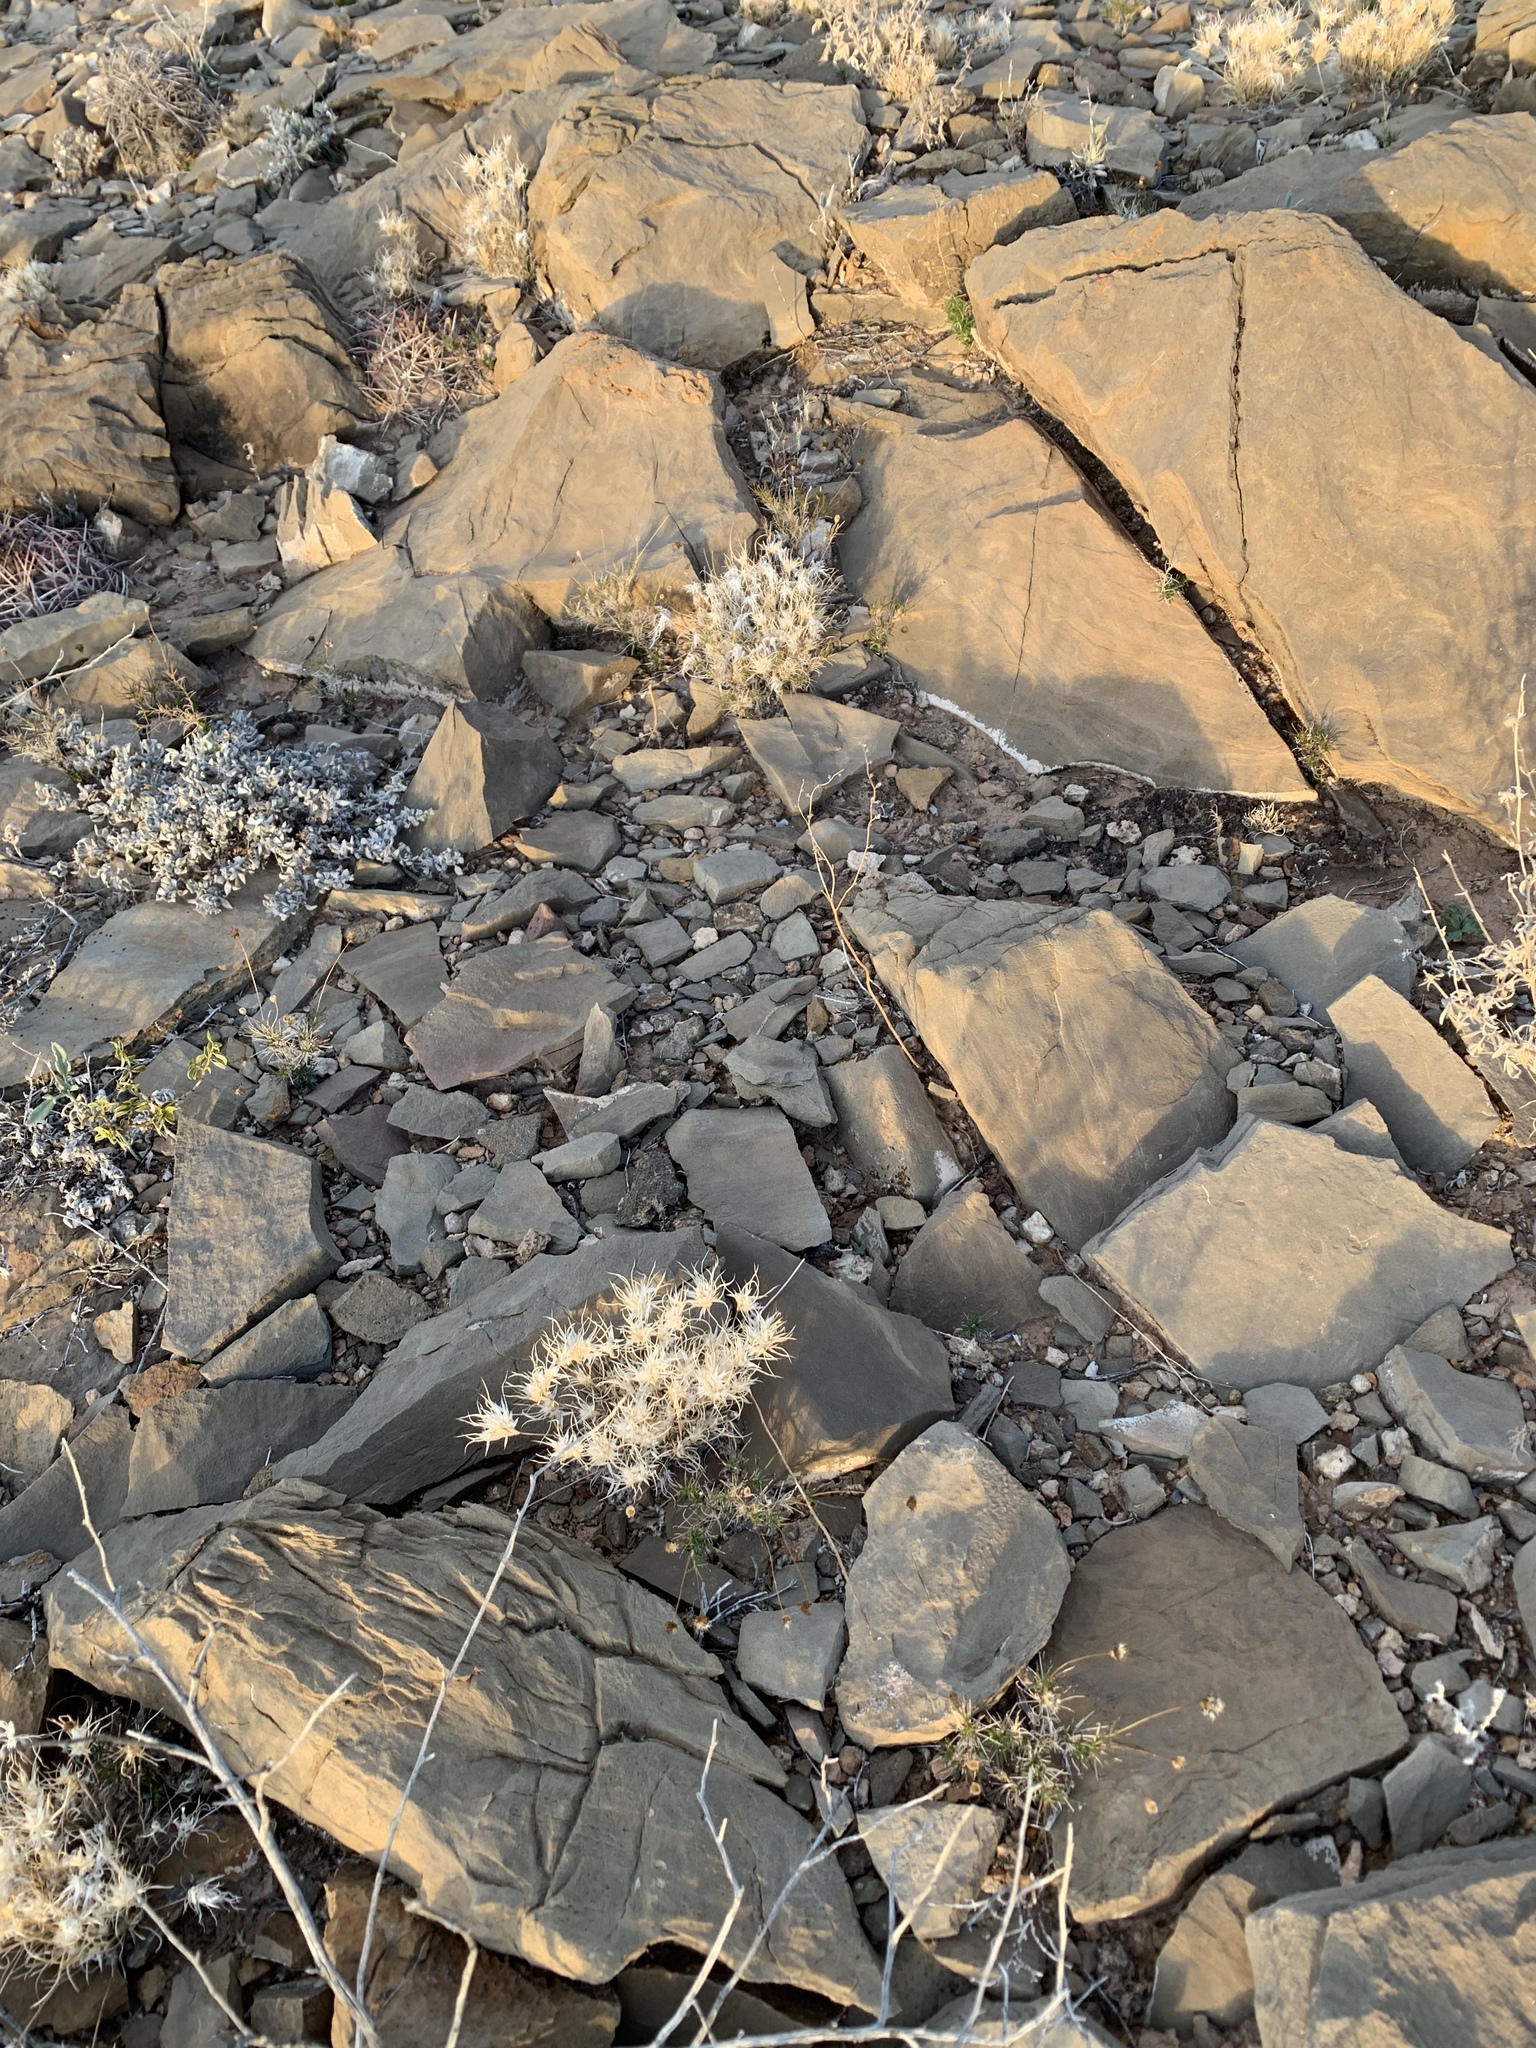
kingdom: Plantae
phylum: Tracheophyta
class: Liliopsida
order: Poales
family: Poaceae
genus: Dasyochloa
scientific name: Dasyochloa pulchella
